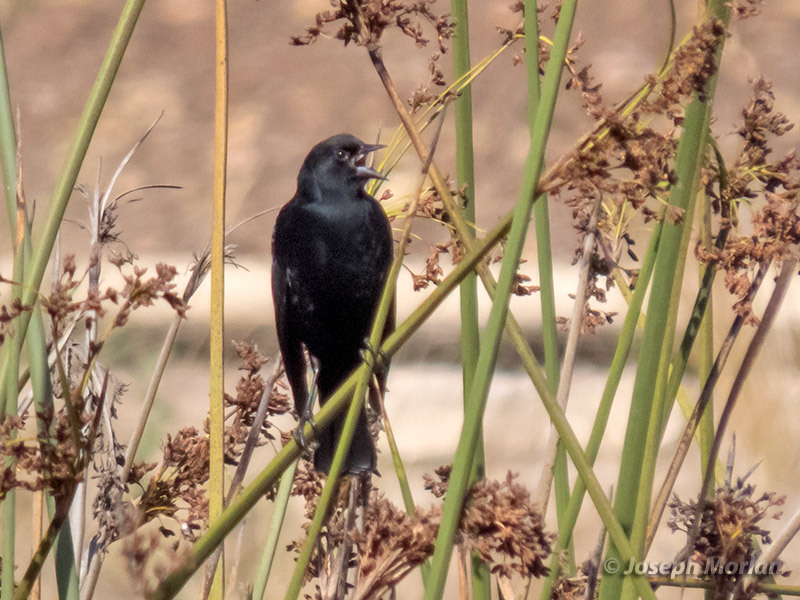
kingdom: Animalia
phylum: Chordata
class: Aves
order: Passeriformes
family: Icteridae
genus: Agelaius
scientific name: Agelaius phoeniceus
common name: Red-winged blackbird
